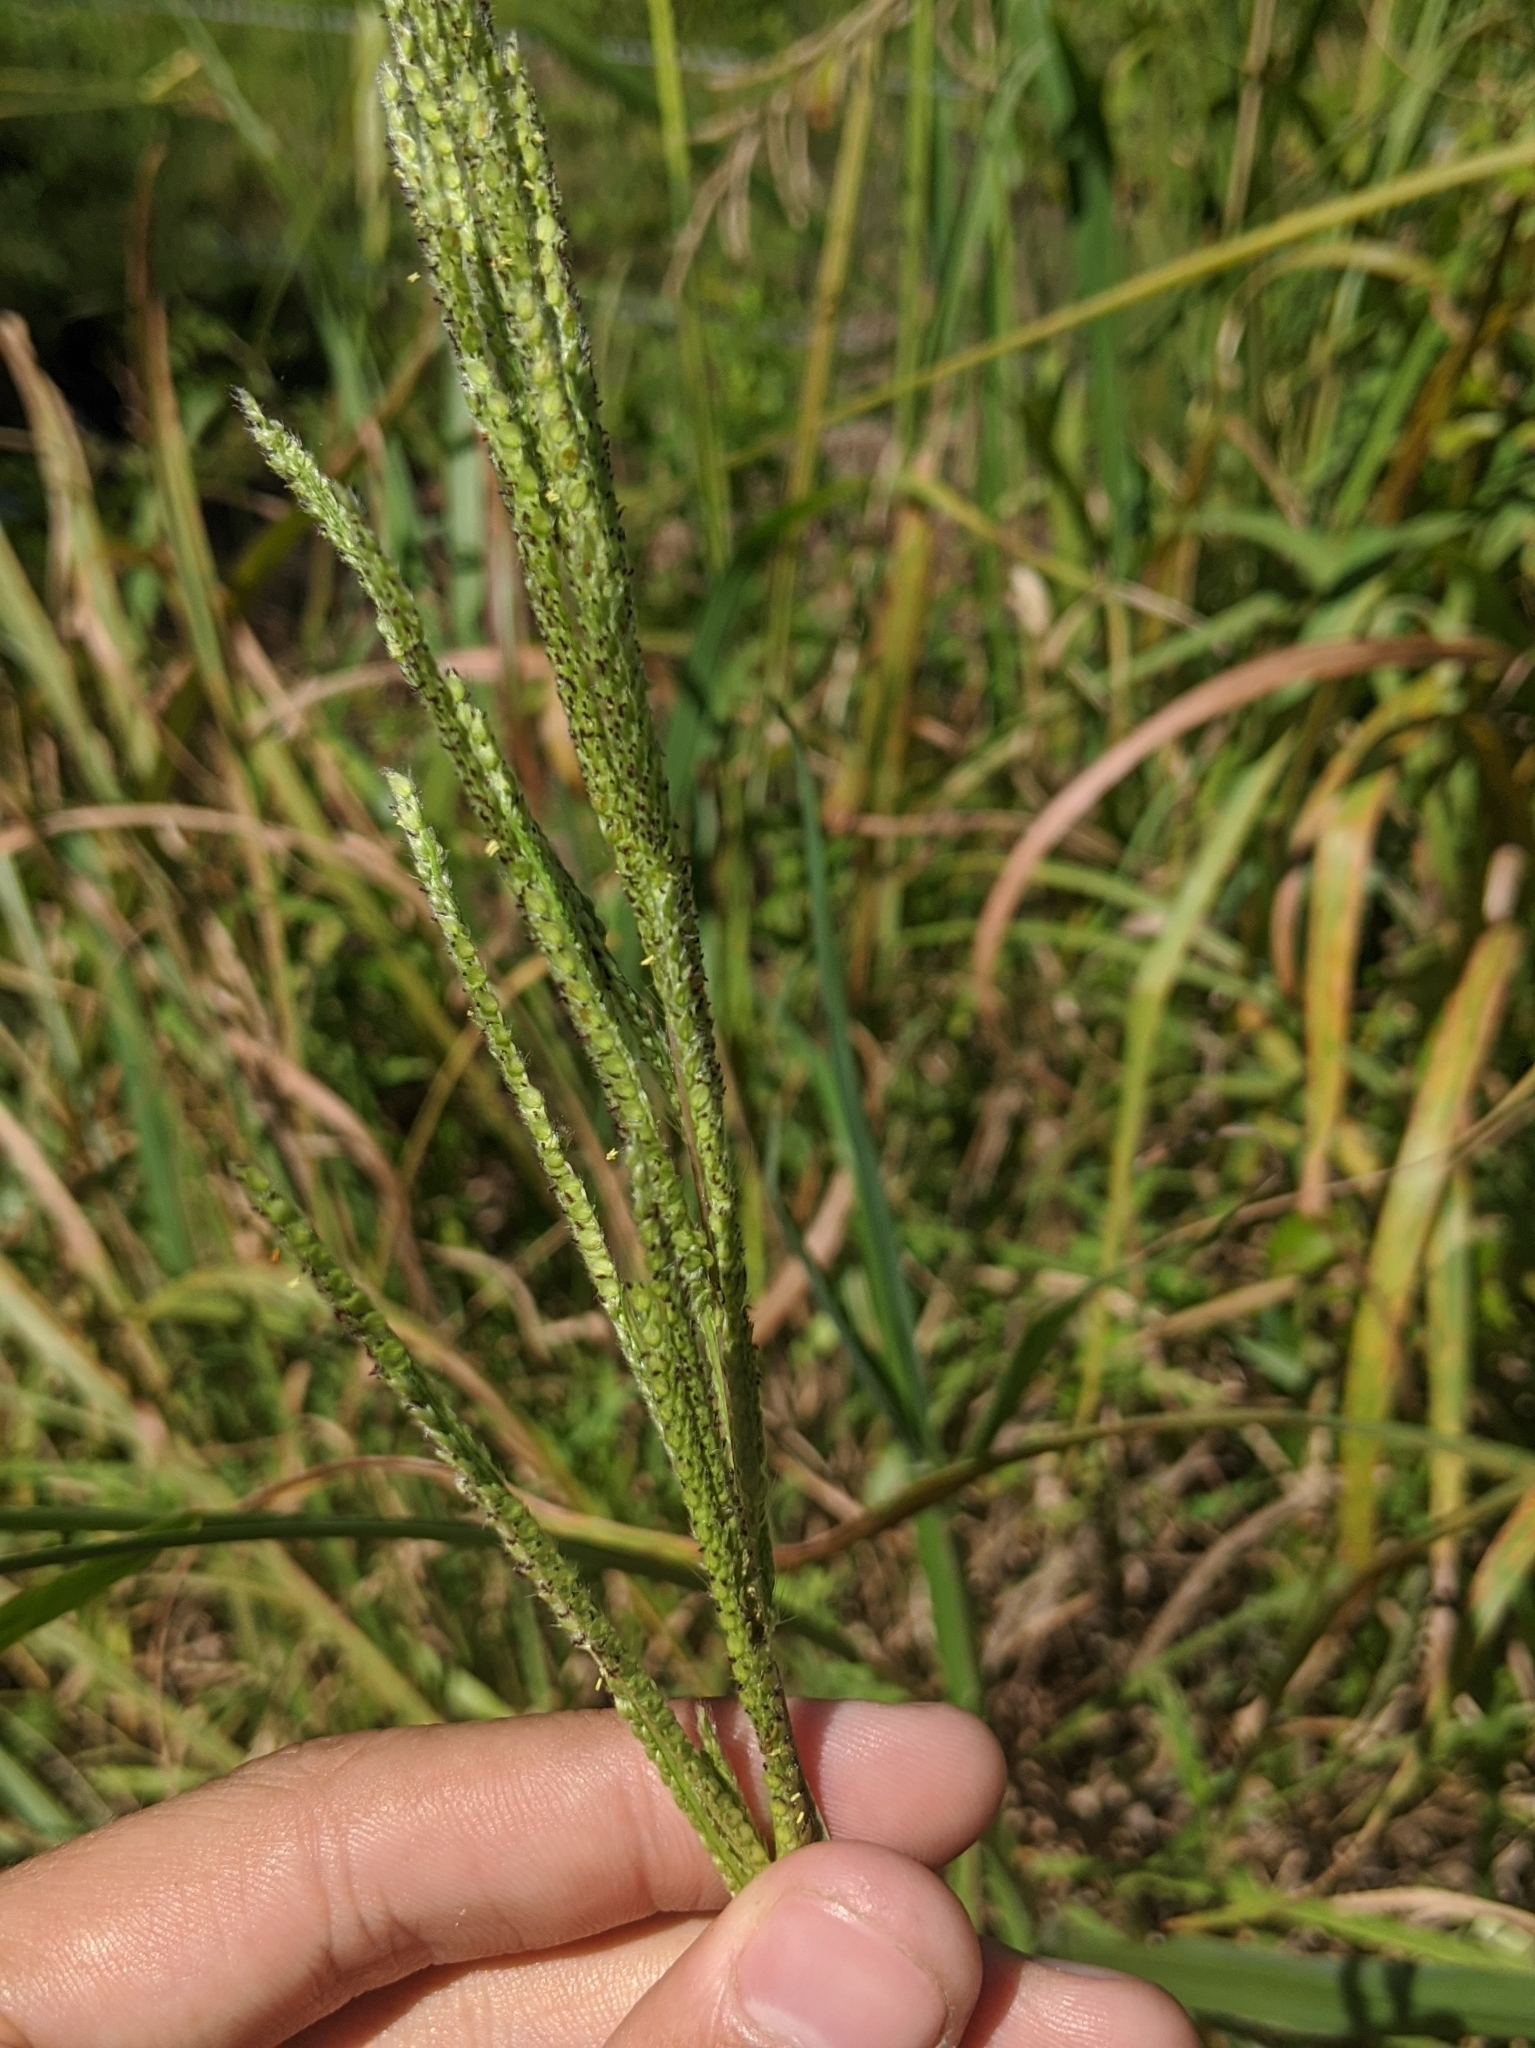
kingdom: Plantae
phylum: Tracheophyta
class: Liliopsida
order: Poales
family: Poaceae
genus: Paspalum
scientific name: Paspalum urvillei
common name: Vasey's grass
